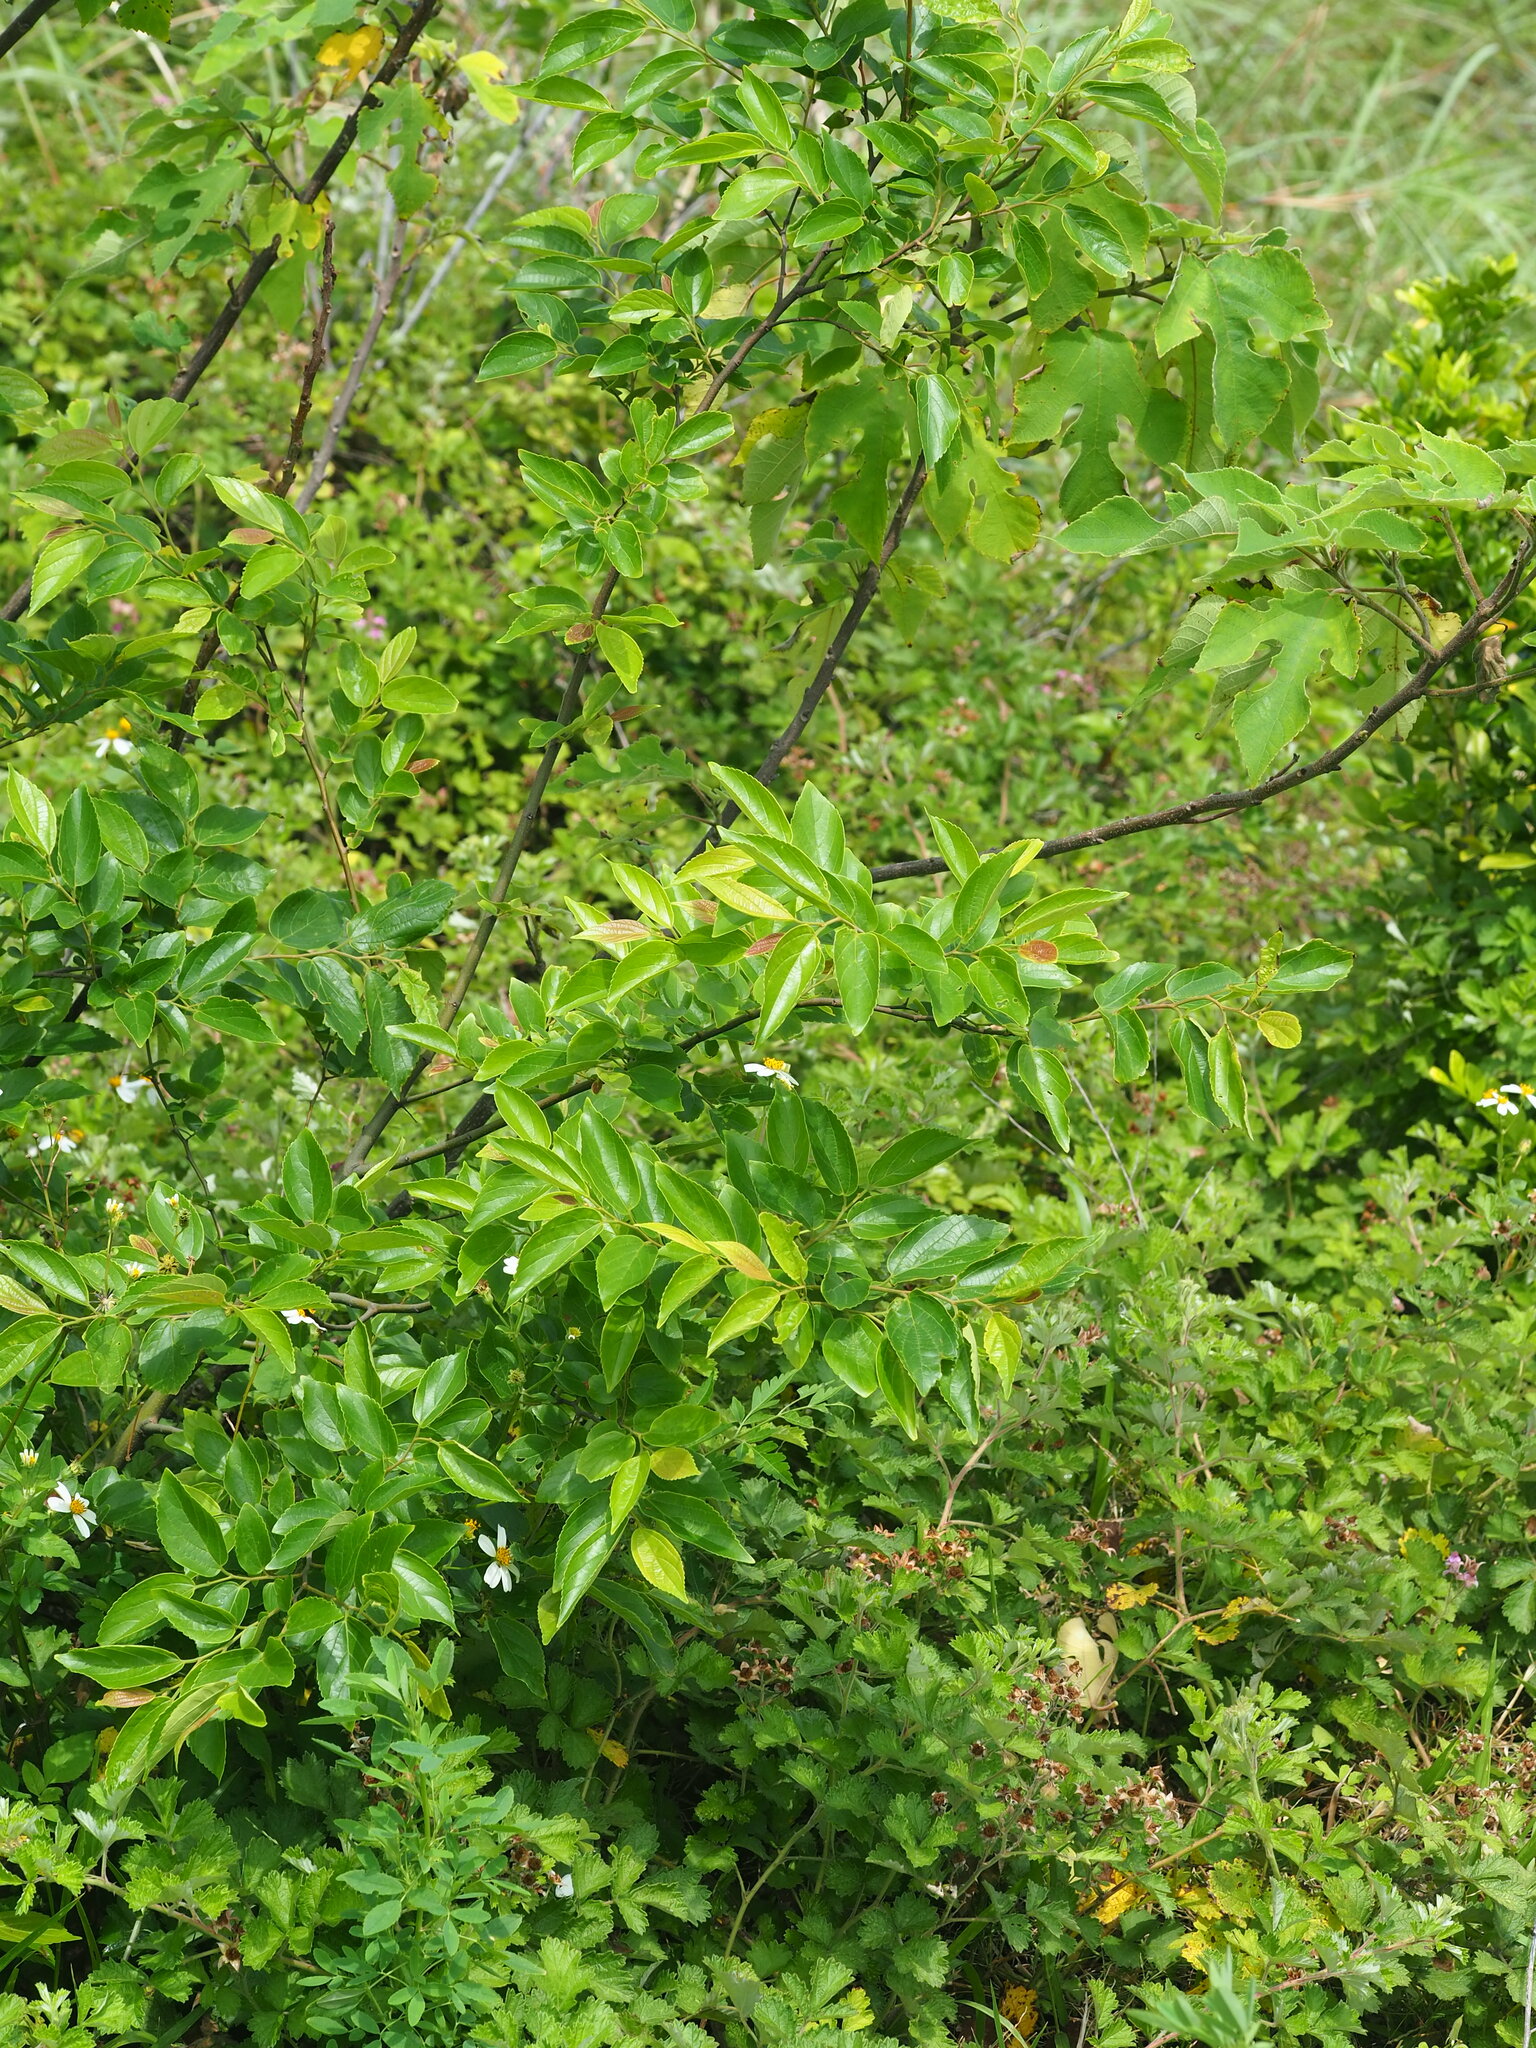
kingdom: Plantae
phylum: Tracheophyta
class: Magnoliopsida
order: Rosales
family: Cannabaceae
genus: Celtis
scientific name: Celtis sinensis
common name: Chinese hackberry
